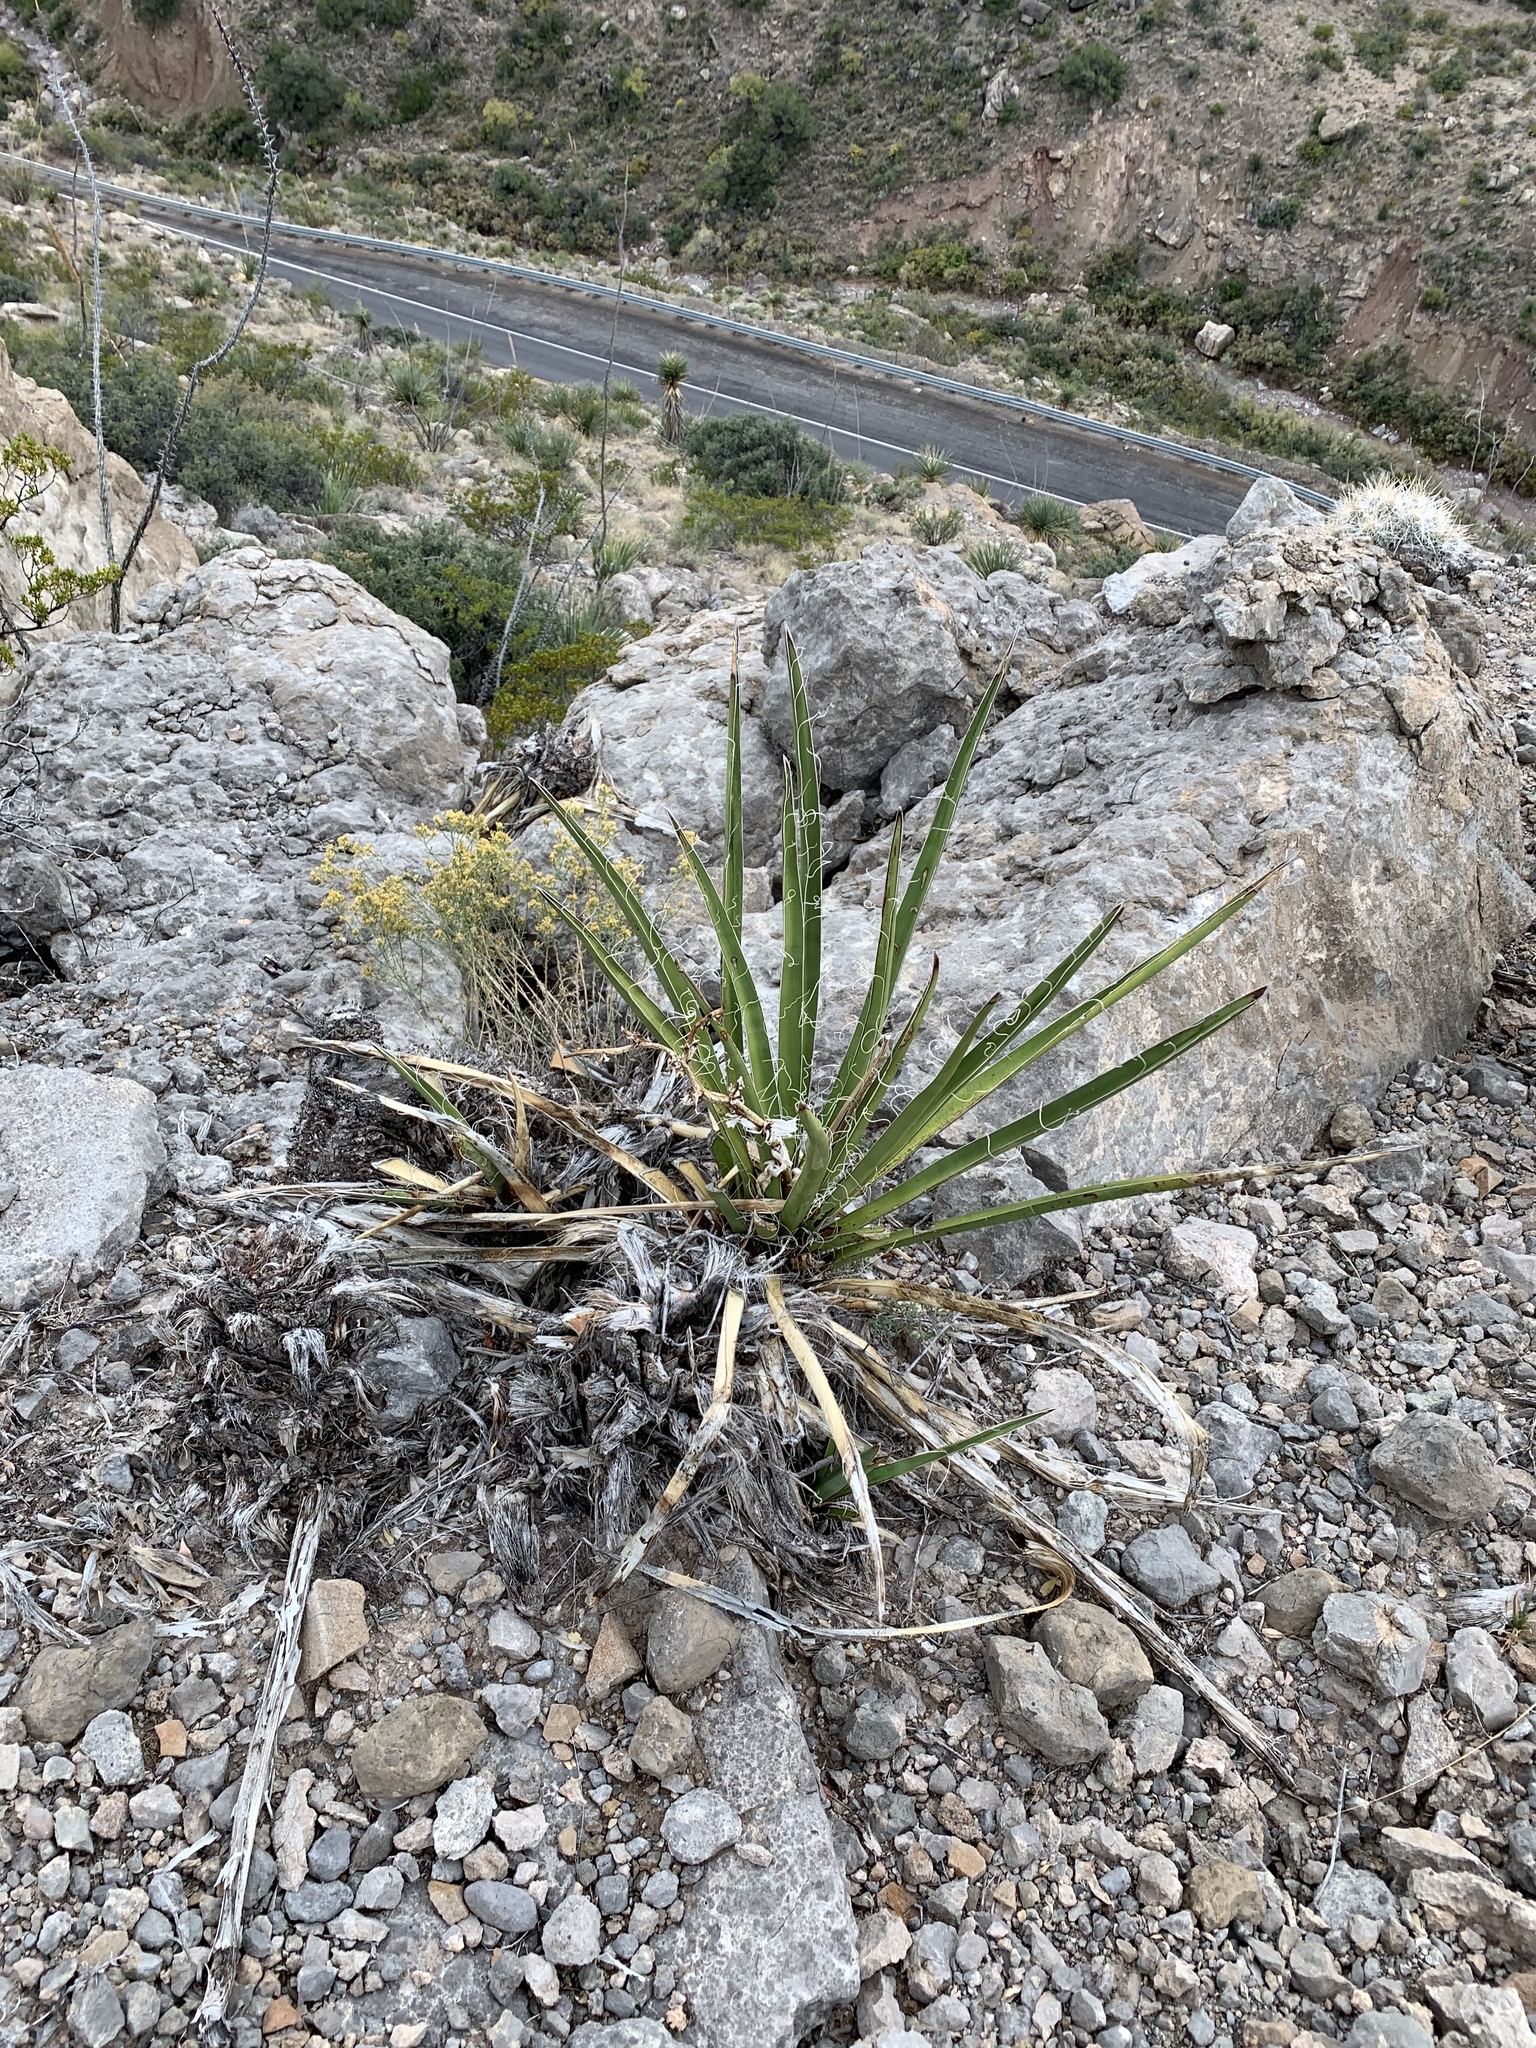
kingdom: Plantae
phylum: Tracheophyta
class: Liliopsida
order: Asparagales
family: Asparagaceae
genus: Yucca
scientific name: Yucca baccata
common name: Banana yucca
